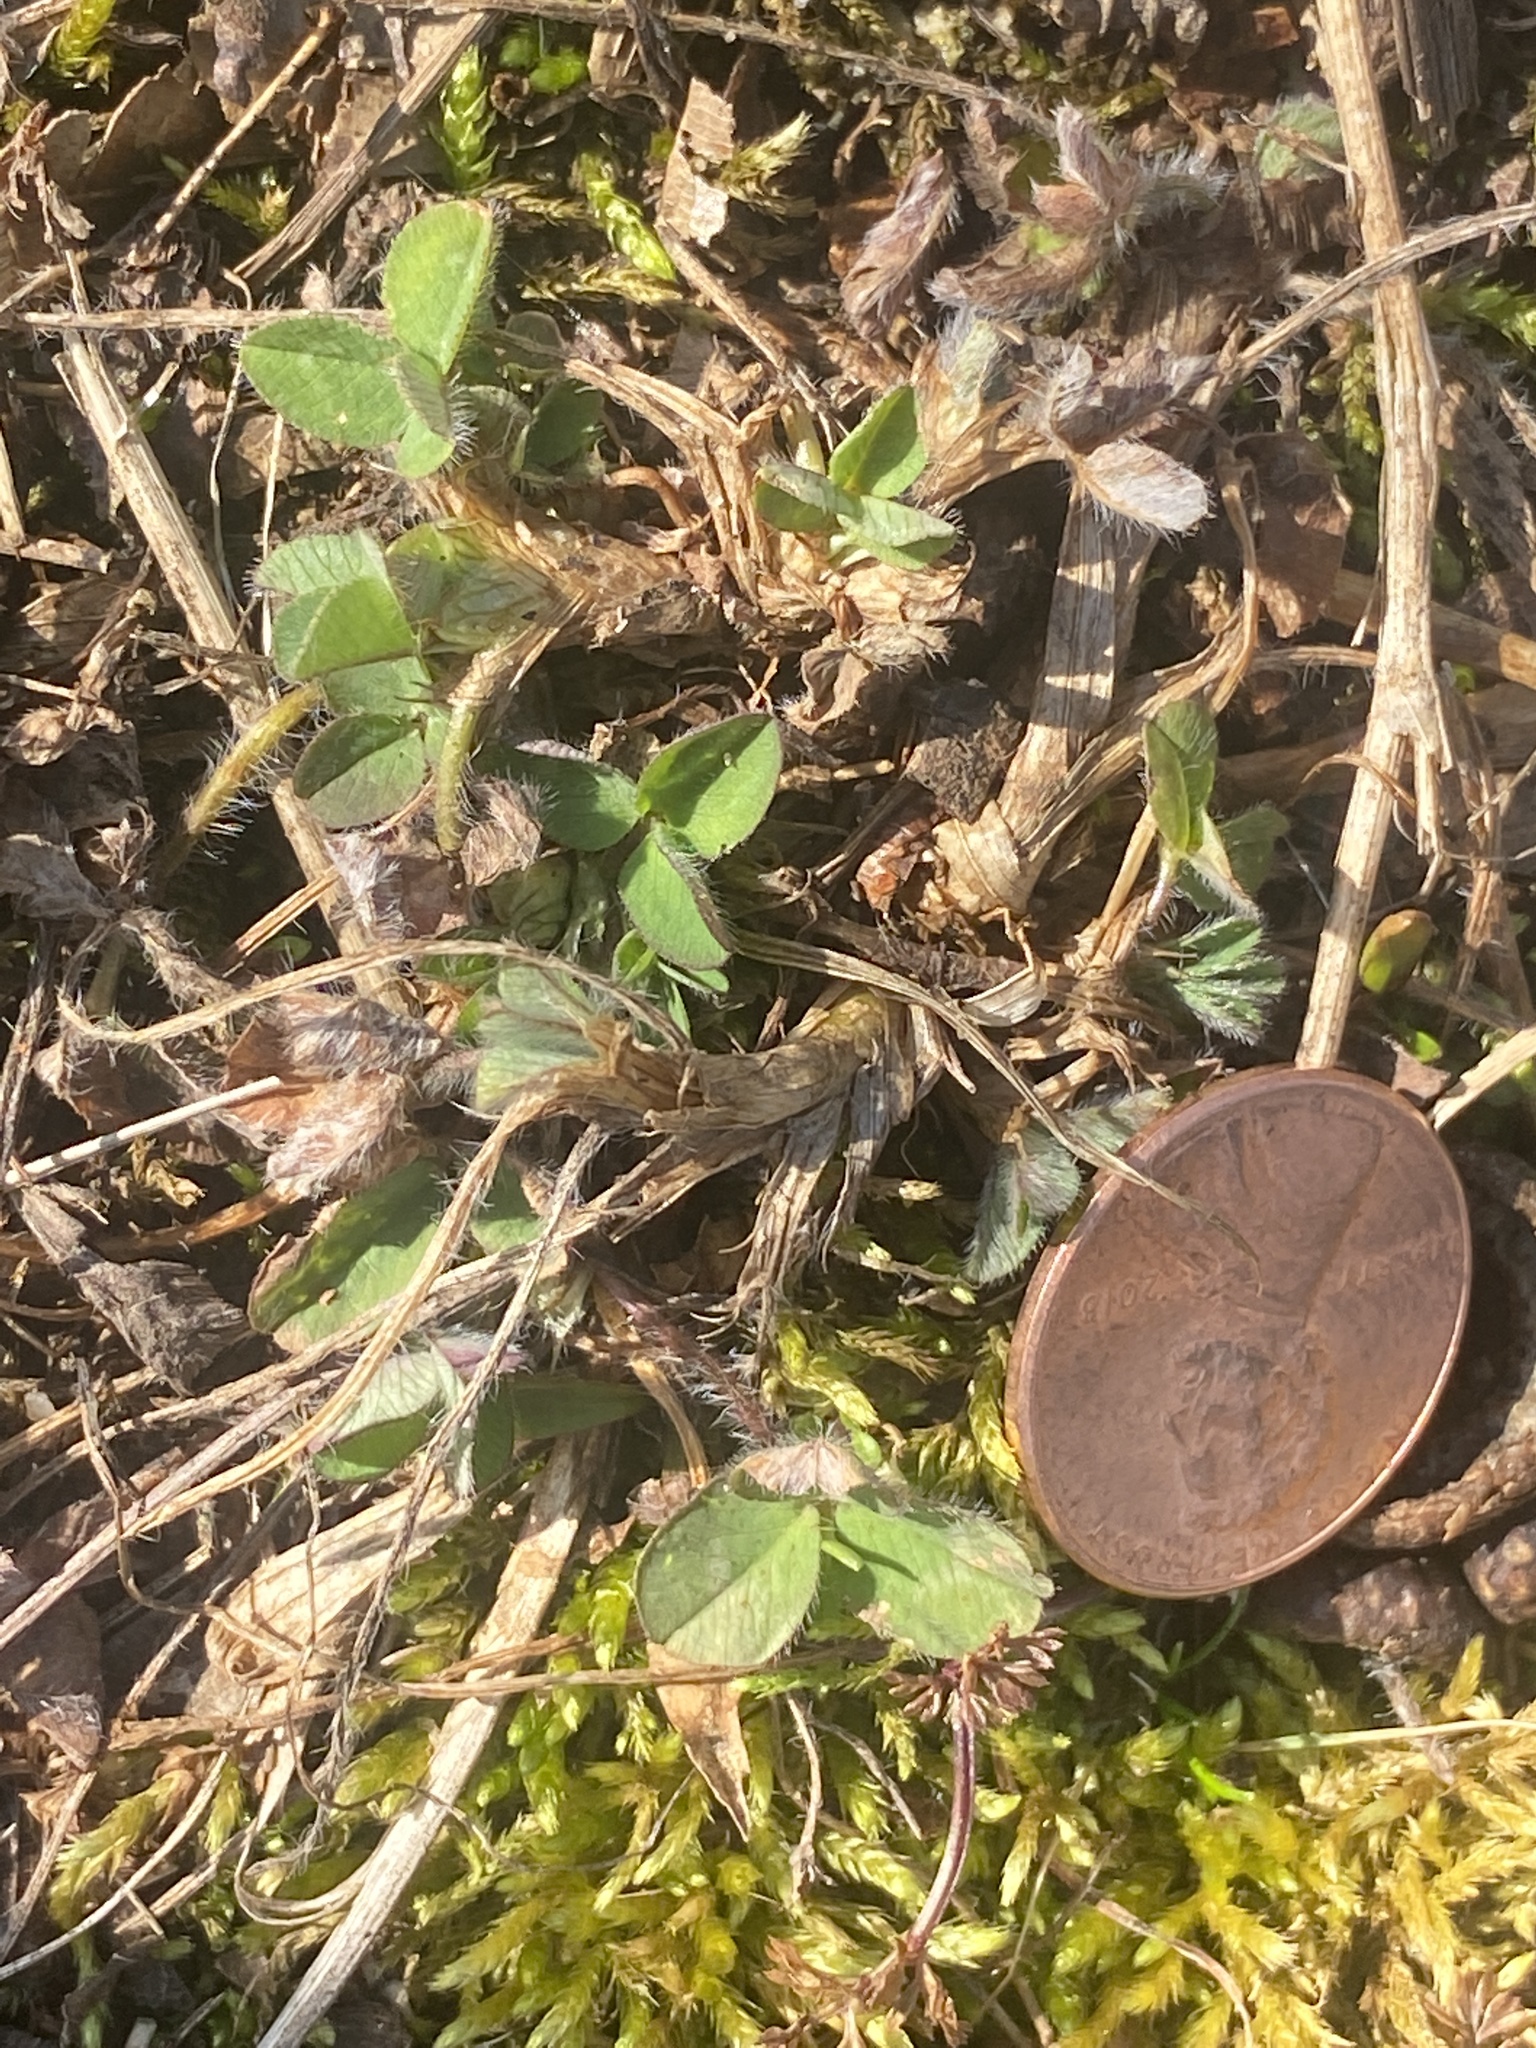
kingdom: Plantae
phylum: Tracheophyta
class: Magnoliopsida
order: Fabales
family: Fabaceae
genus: Trifolium
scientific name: Trifolium pratense
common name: Red clover
